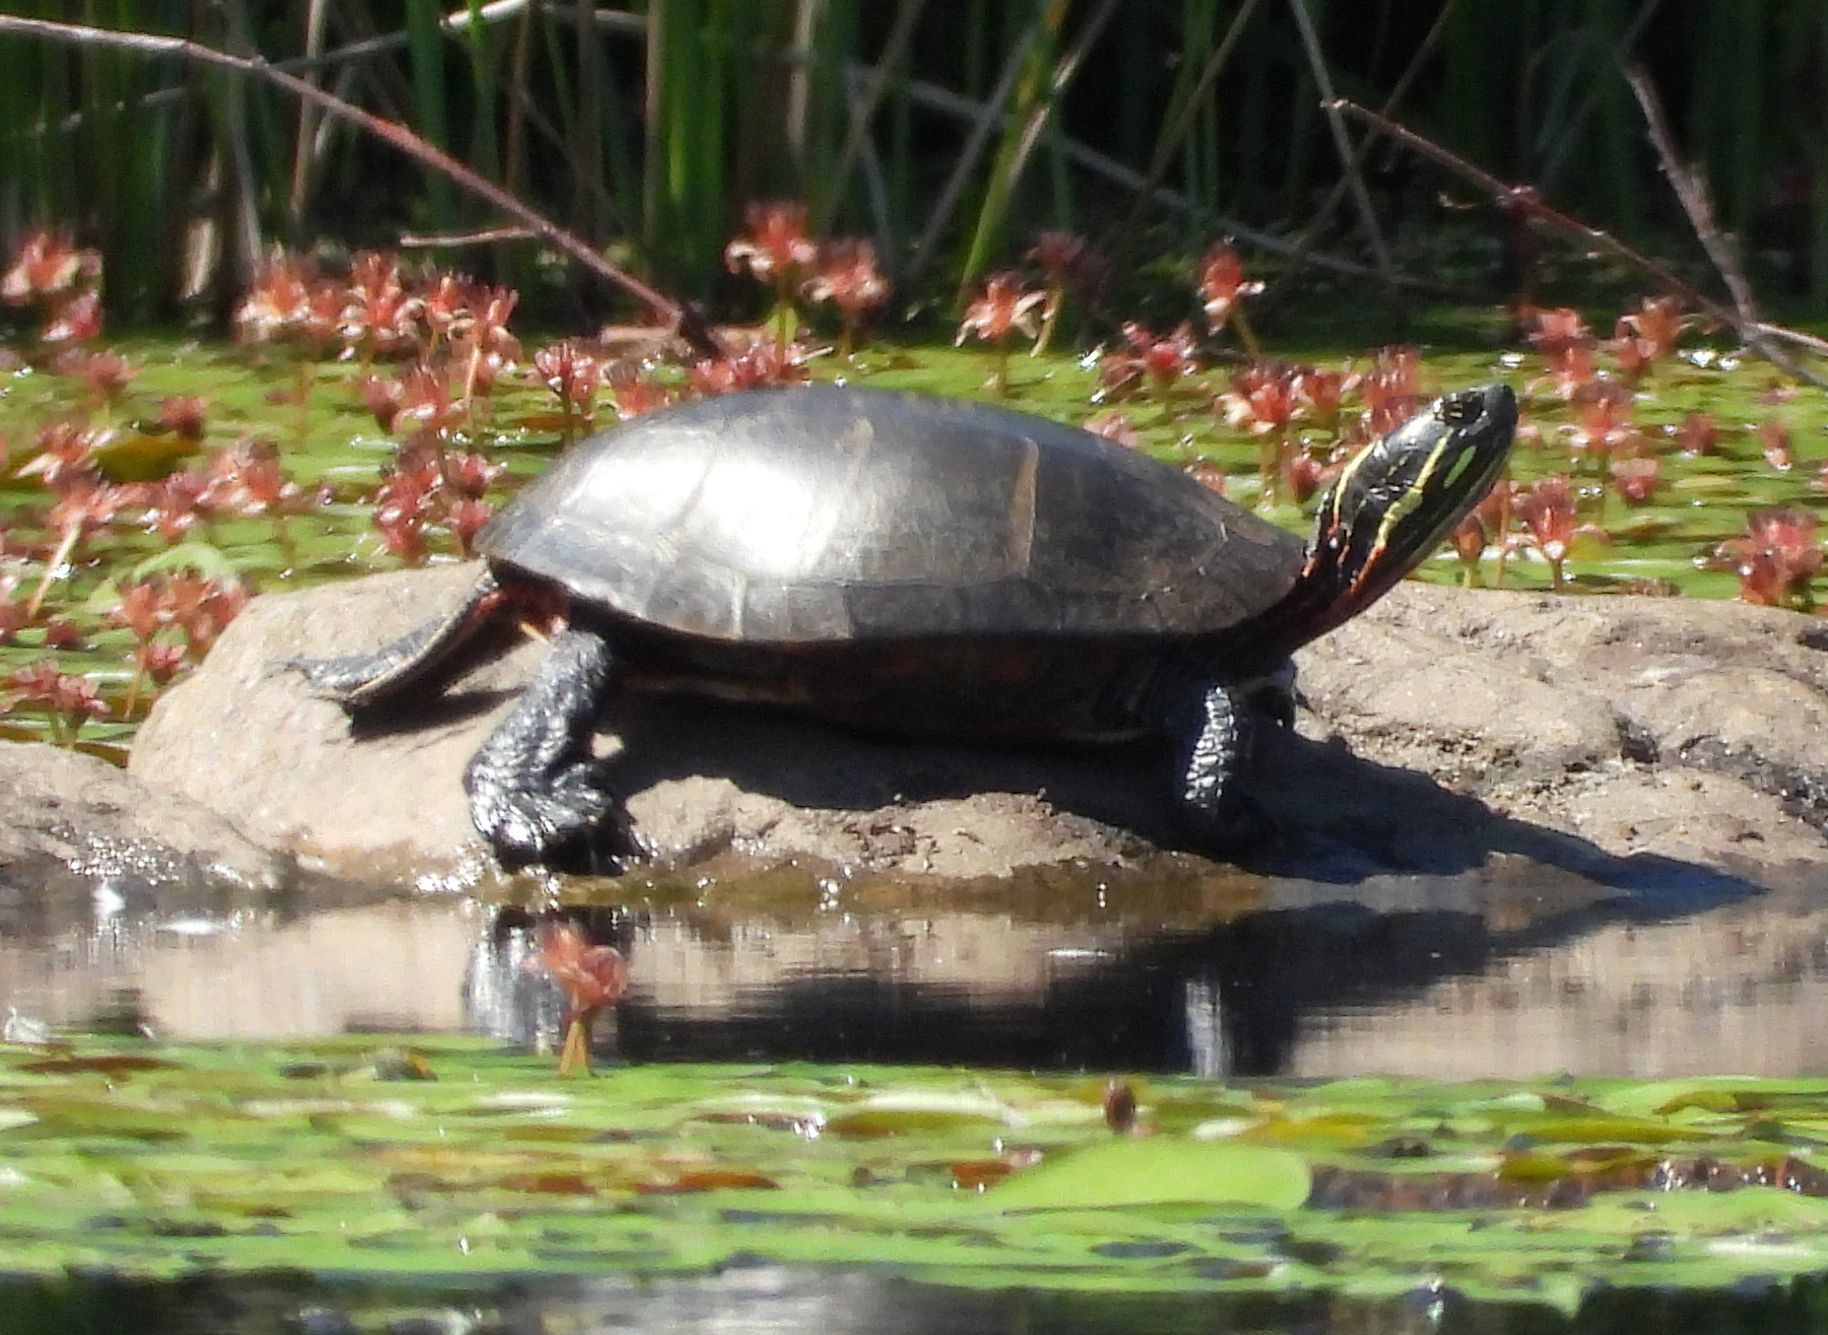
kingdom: Animalia
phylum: Chordata
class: Testudines
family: Emydidae
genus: Chrysemys
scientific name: Chrysemys picta
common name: Painted turtle
